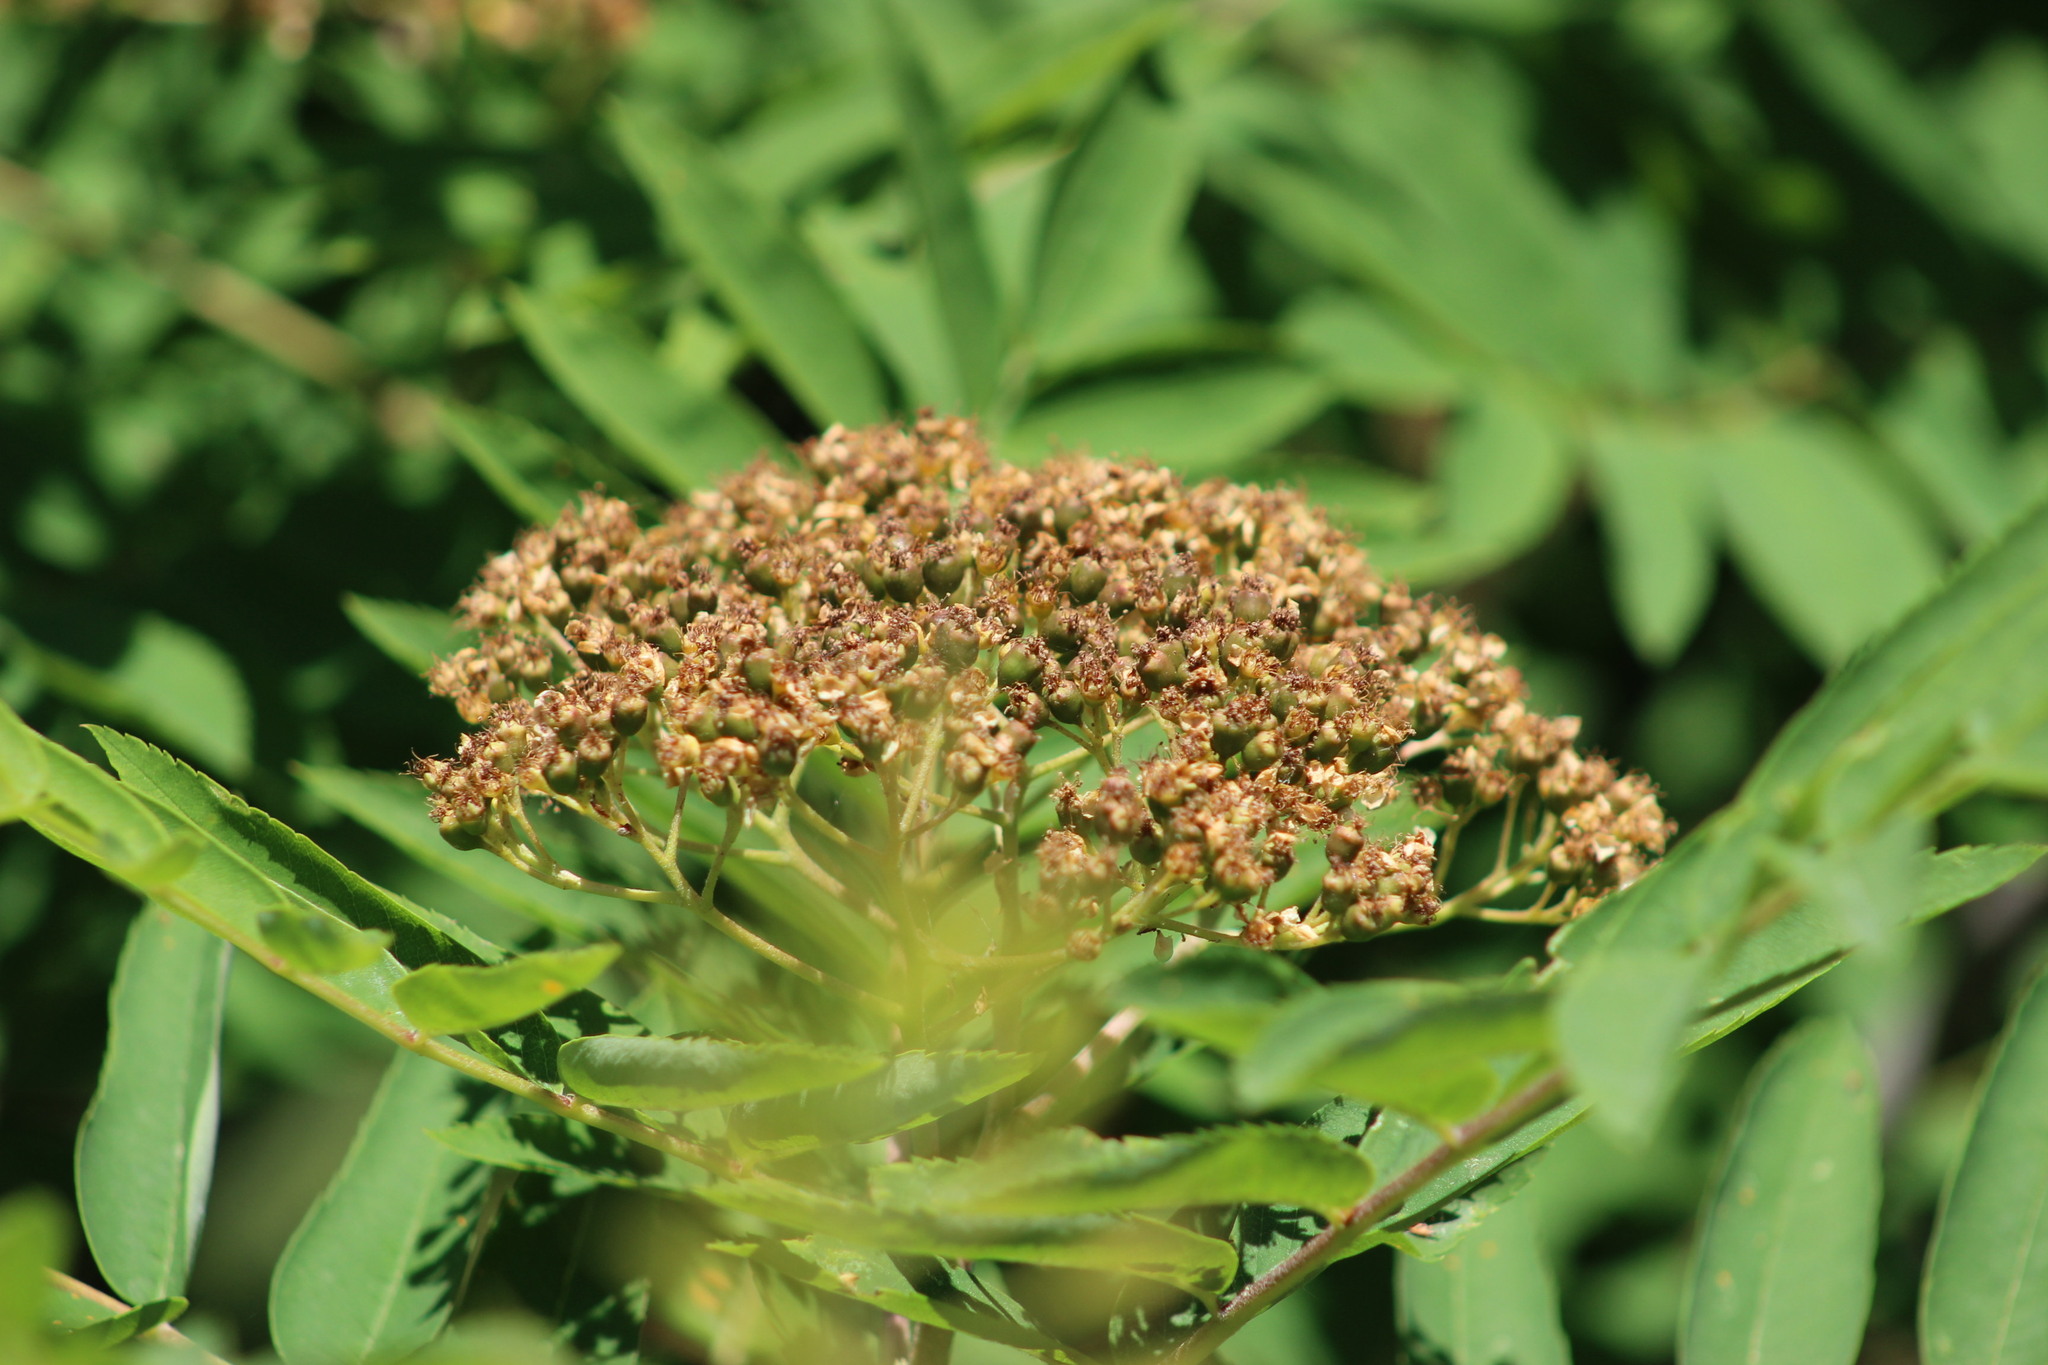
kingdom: Plantae
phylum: Tracheophyta
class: Magnoliopsida
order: Rosales
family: Rosaceae
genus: Sorbus
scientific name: Sorbus aucuparia
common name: Rowan
